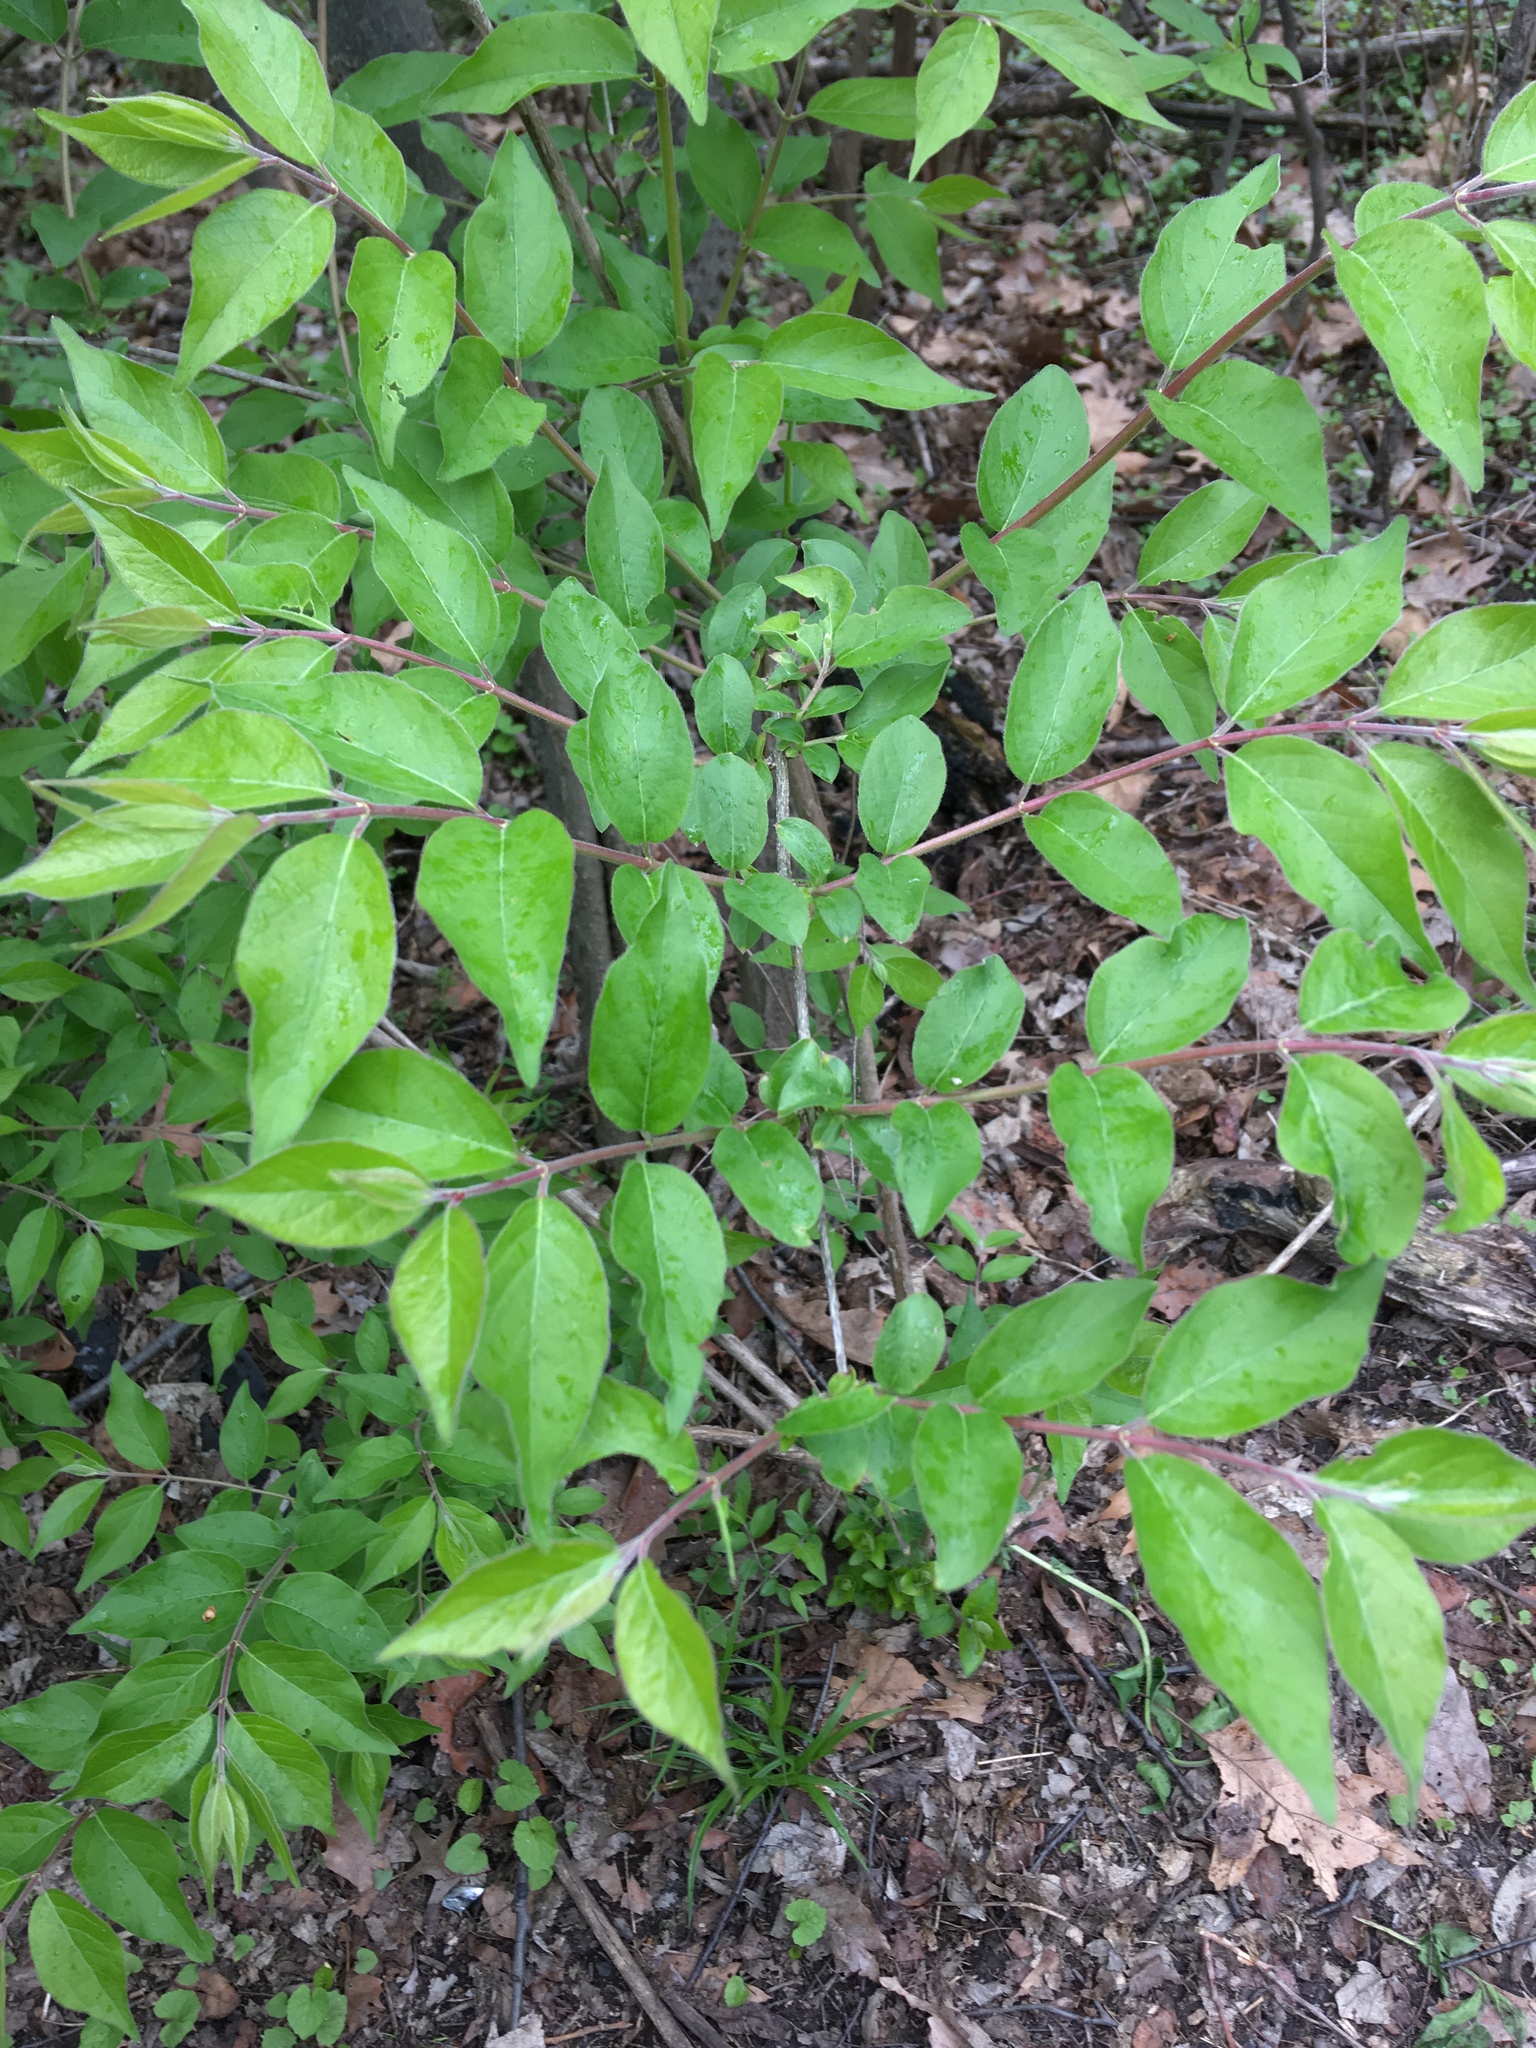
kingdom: Plantae
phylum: Tracheophyta
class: Magnoliopsida
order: Dipsacales
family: Caprifoliaceae
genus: Lonicera
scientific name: Lonicera maackii
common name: Amur honeysuckle
